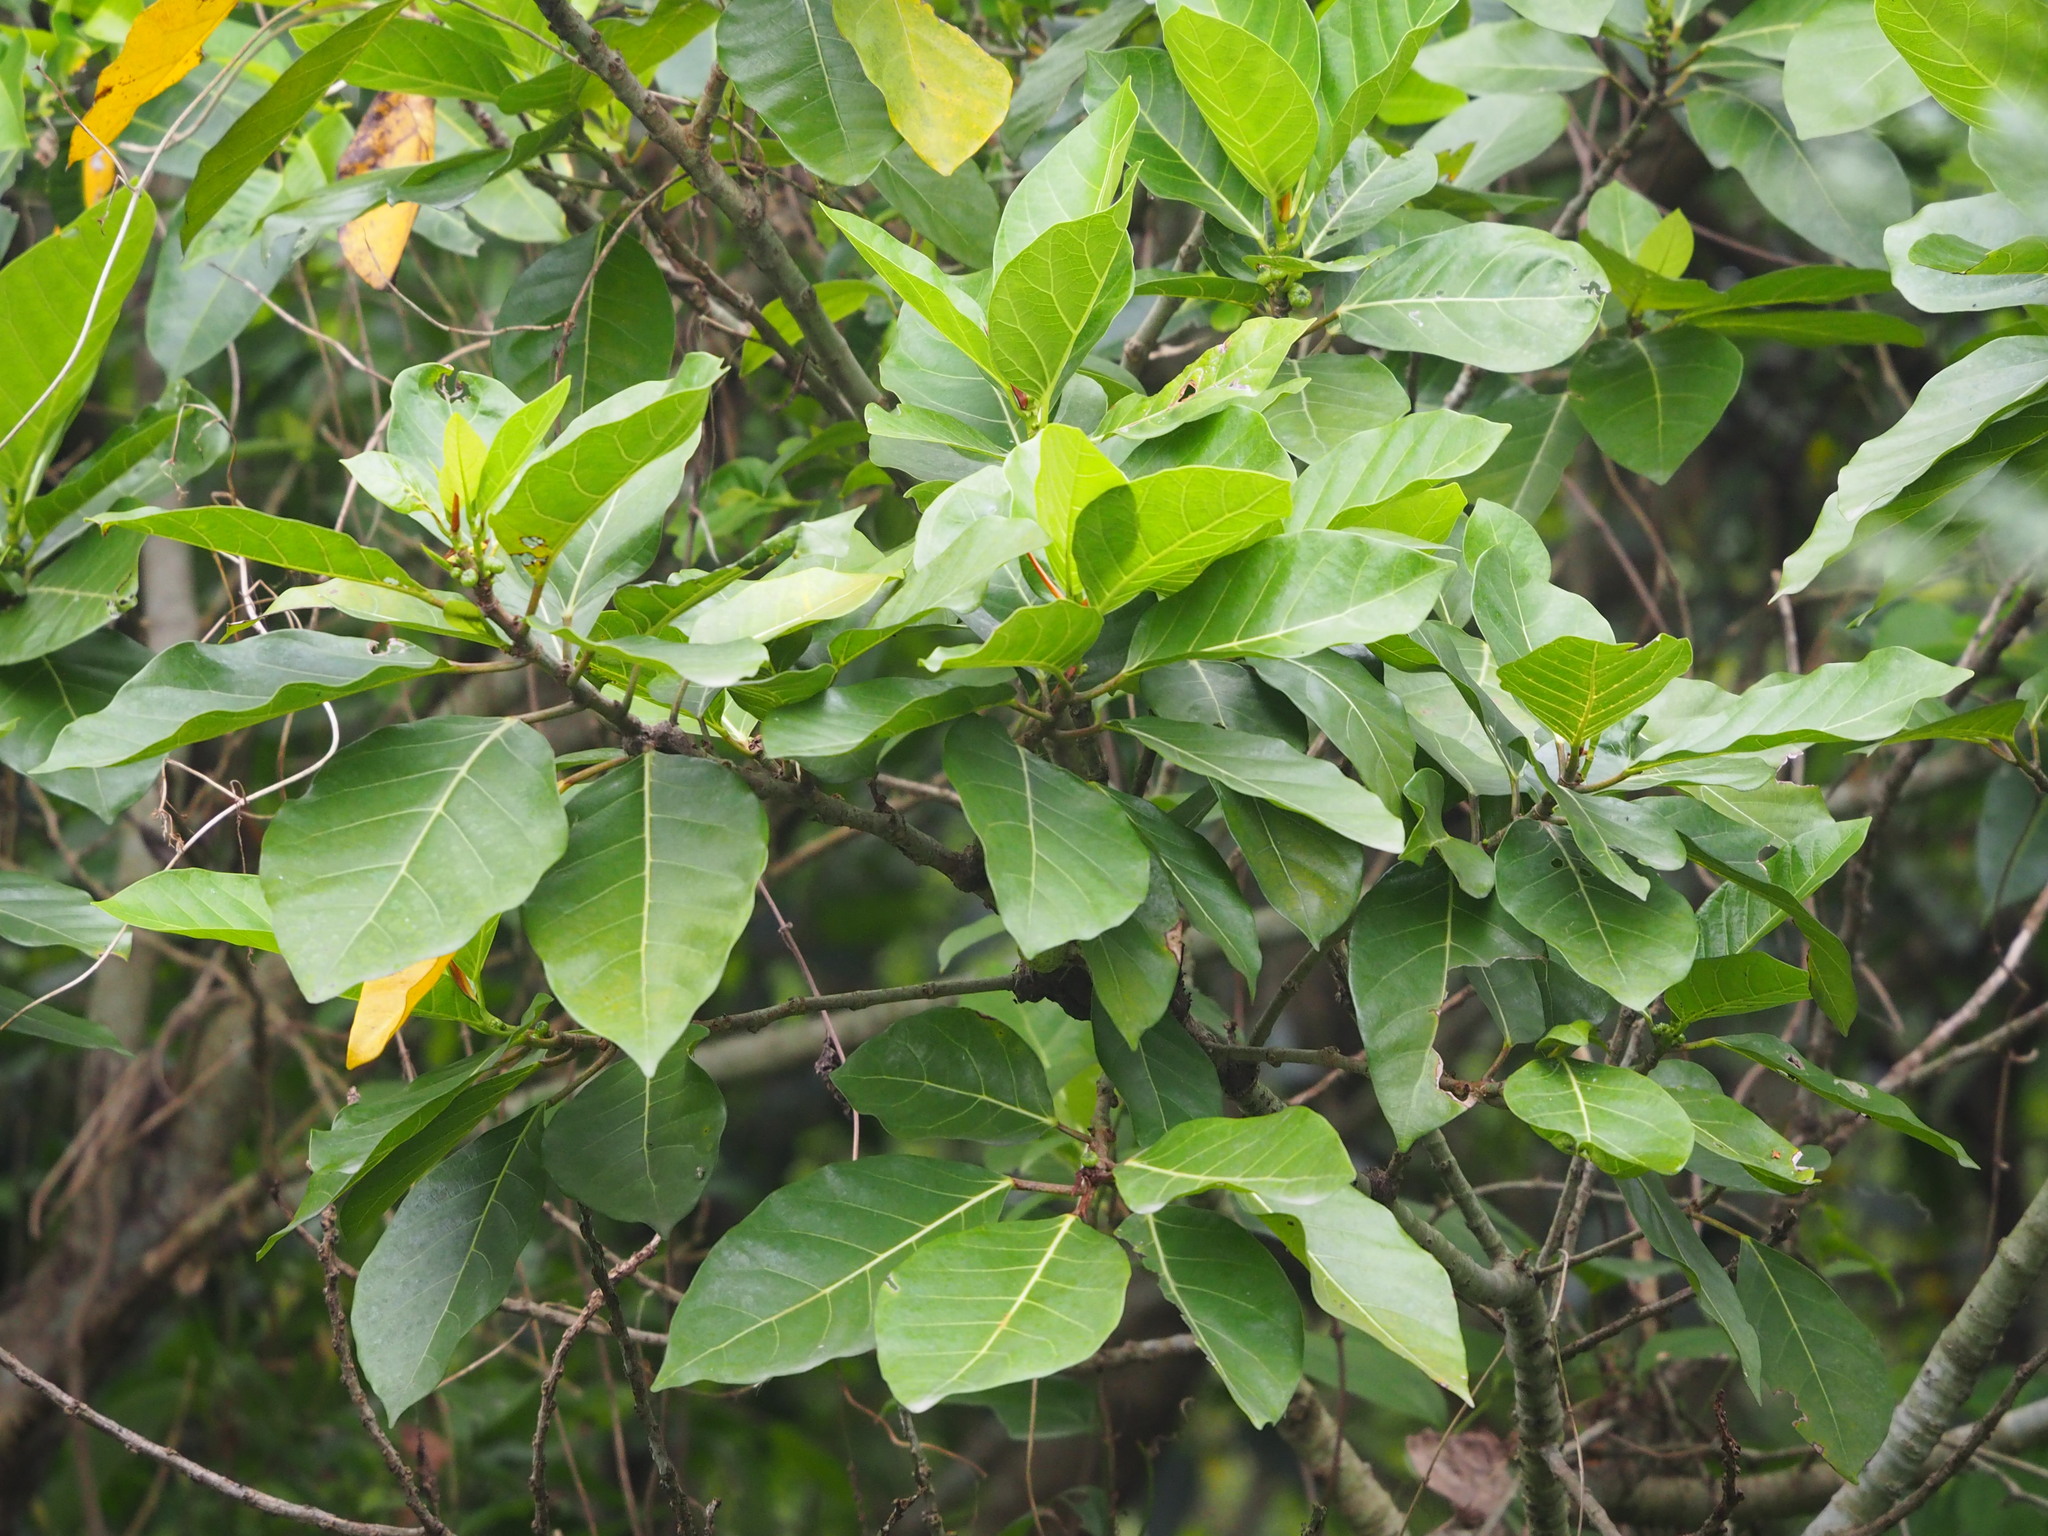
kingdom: Plantae
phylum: Tracheophyta
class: Magnoliopsida
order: Rosales
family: Moraceae
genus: Ficus
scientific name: Ficus septica
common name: Septic fig
